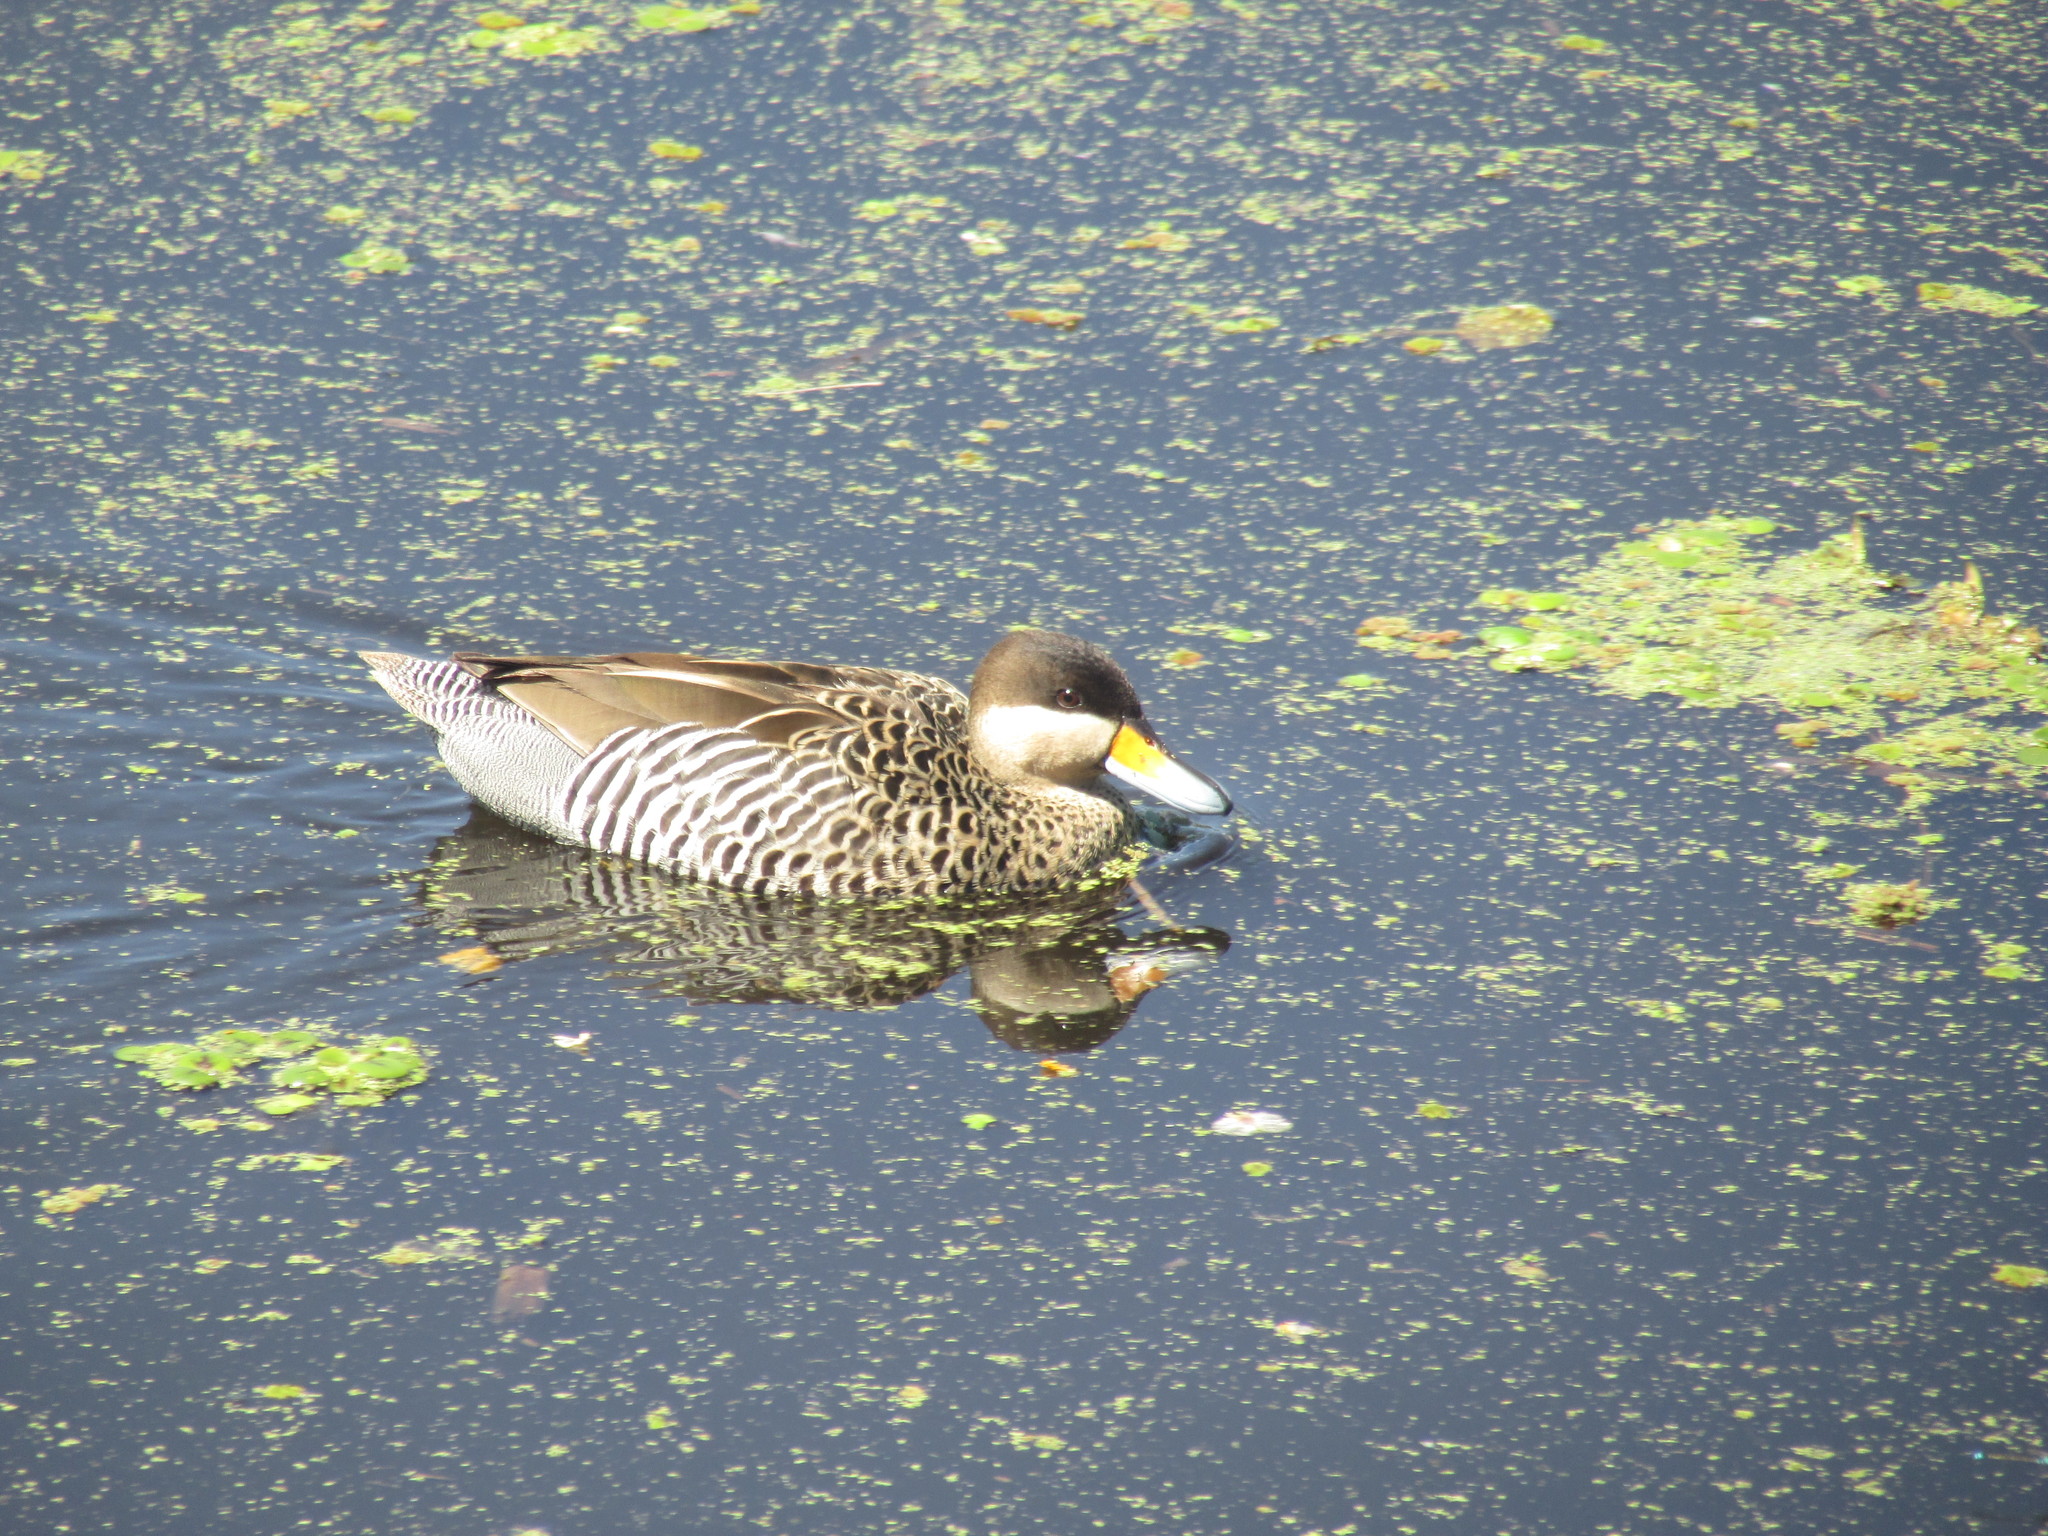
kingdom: Animalia
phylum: Chordata
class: Aves
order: Anseriformes
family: Anatidae
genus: Spatula
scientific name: Spatula versicolor
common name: Silver teal
